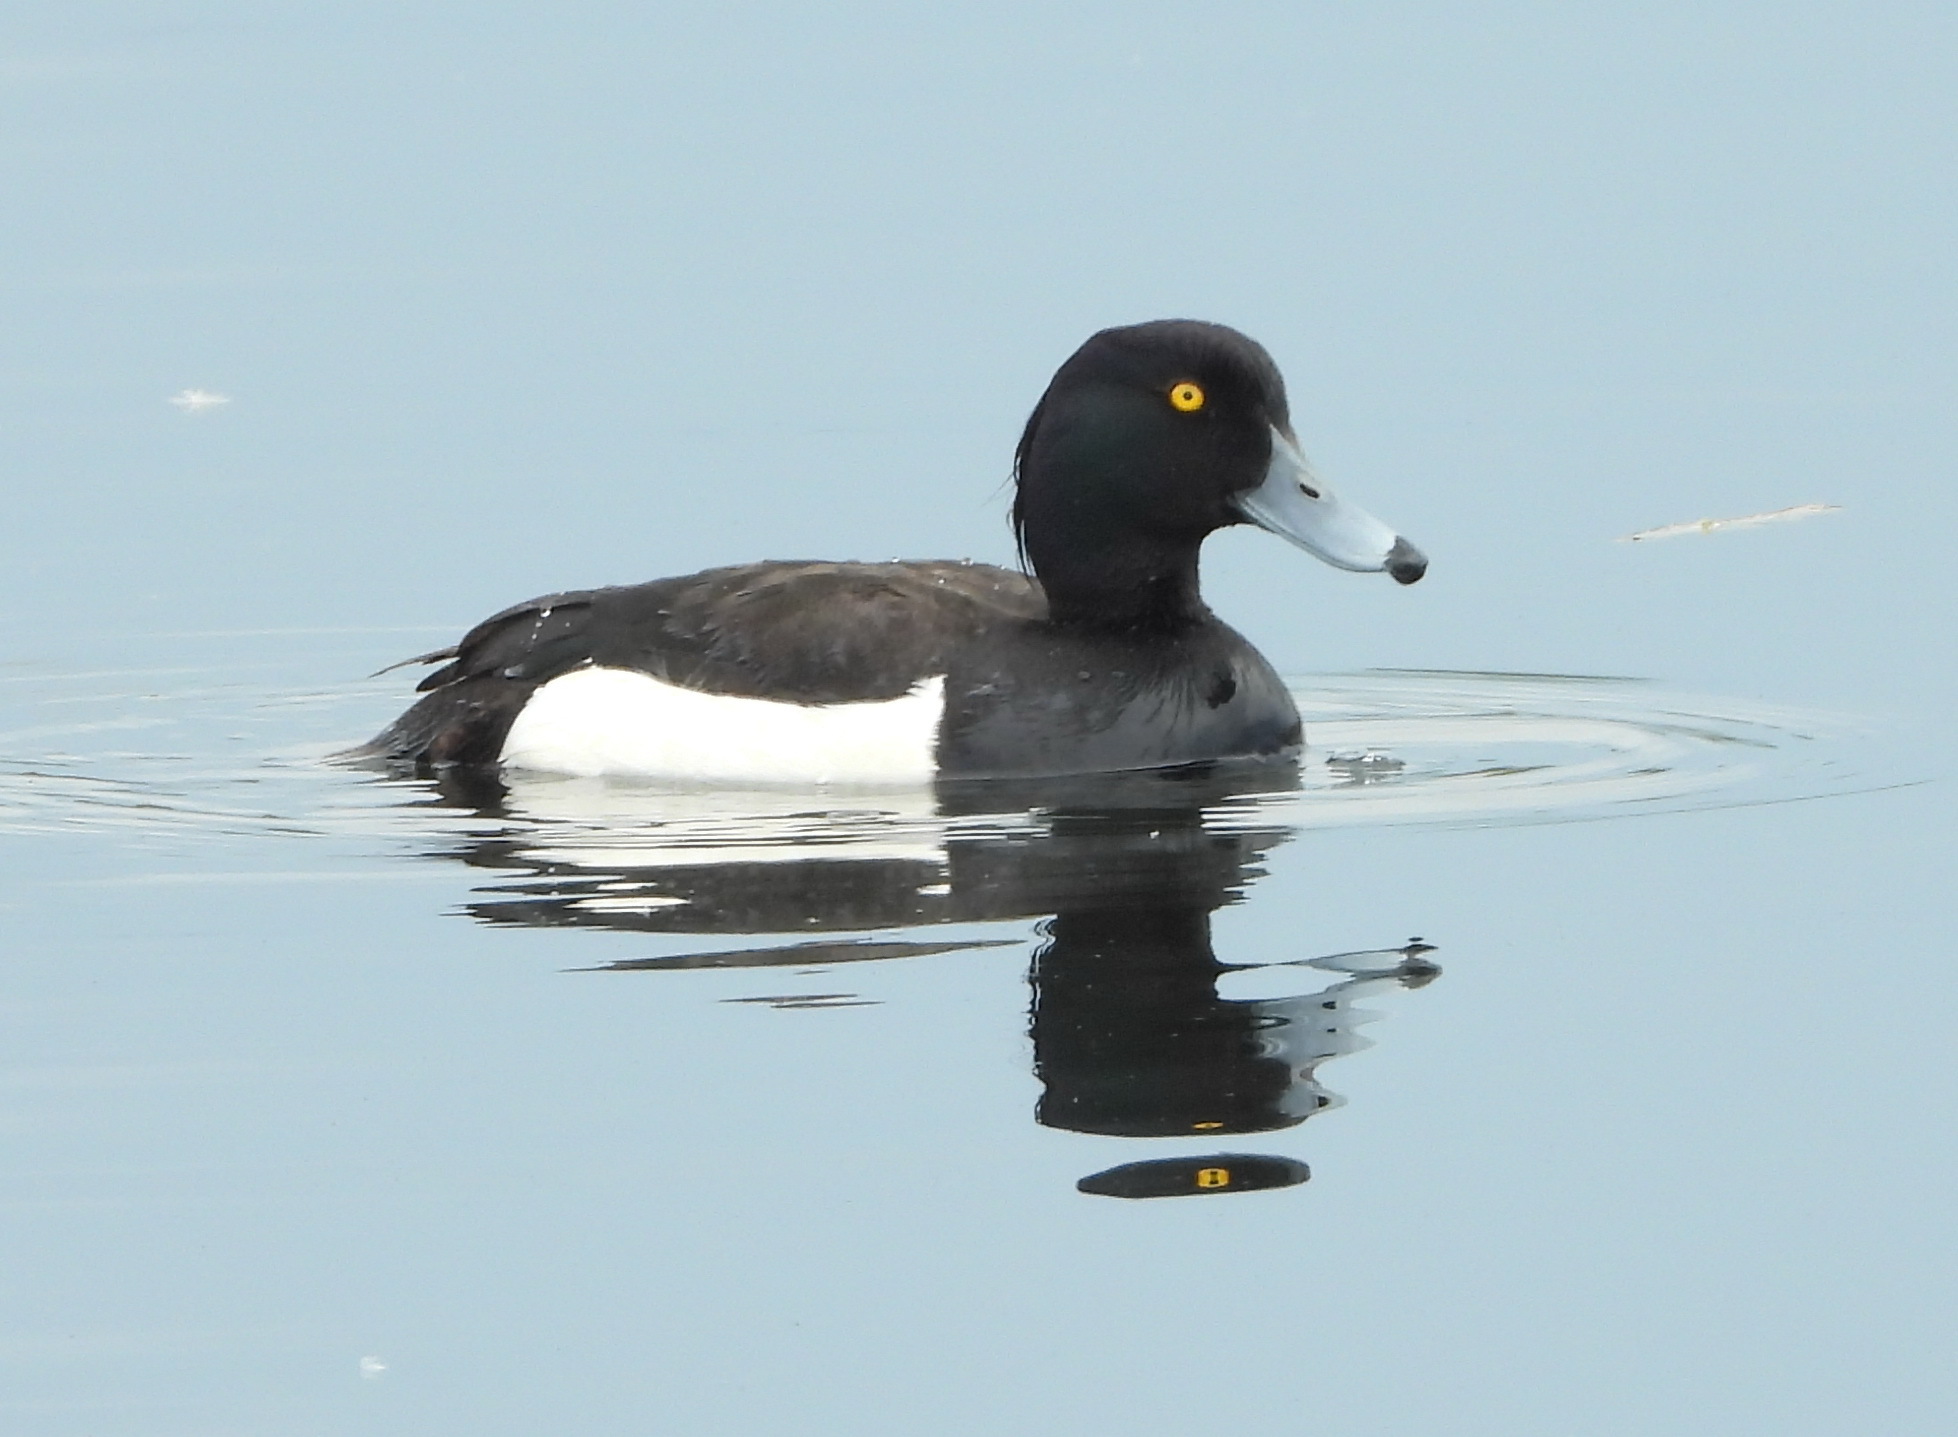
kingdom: Animalia
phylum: Chordata
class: Aves
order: Anseriformes
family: Anatidae
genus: Aythya
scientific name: Aythya fuligula
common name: Tufted duck
